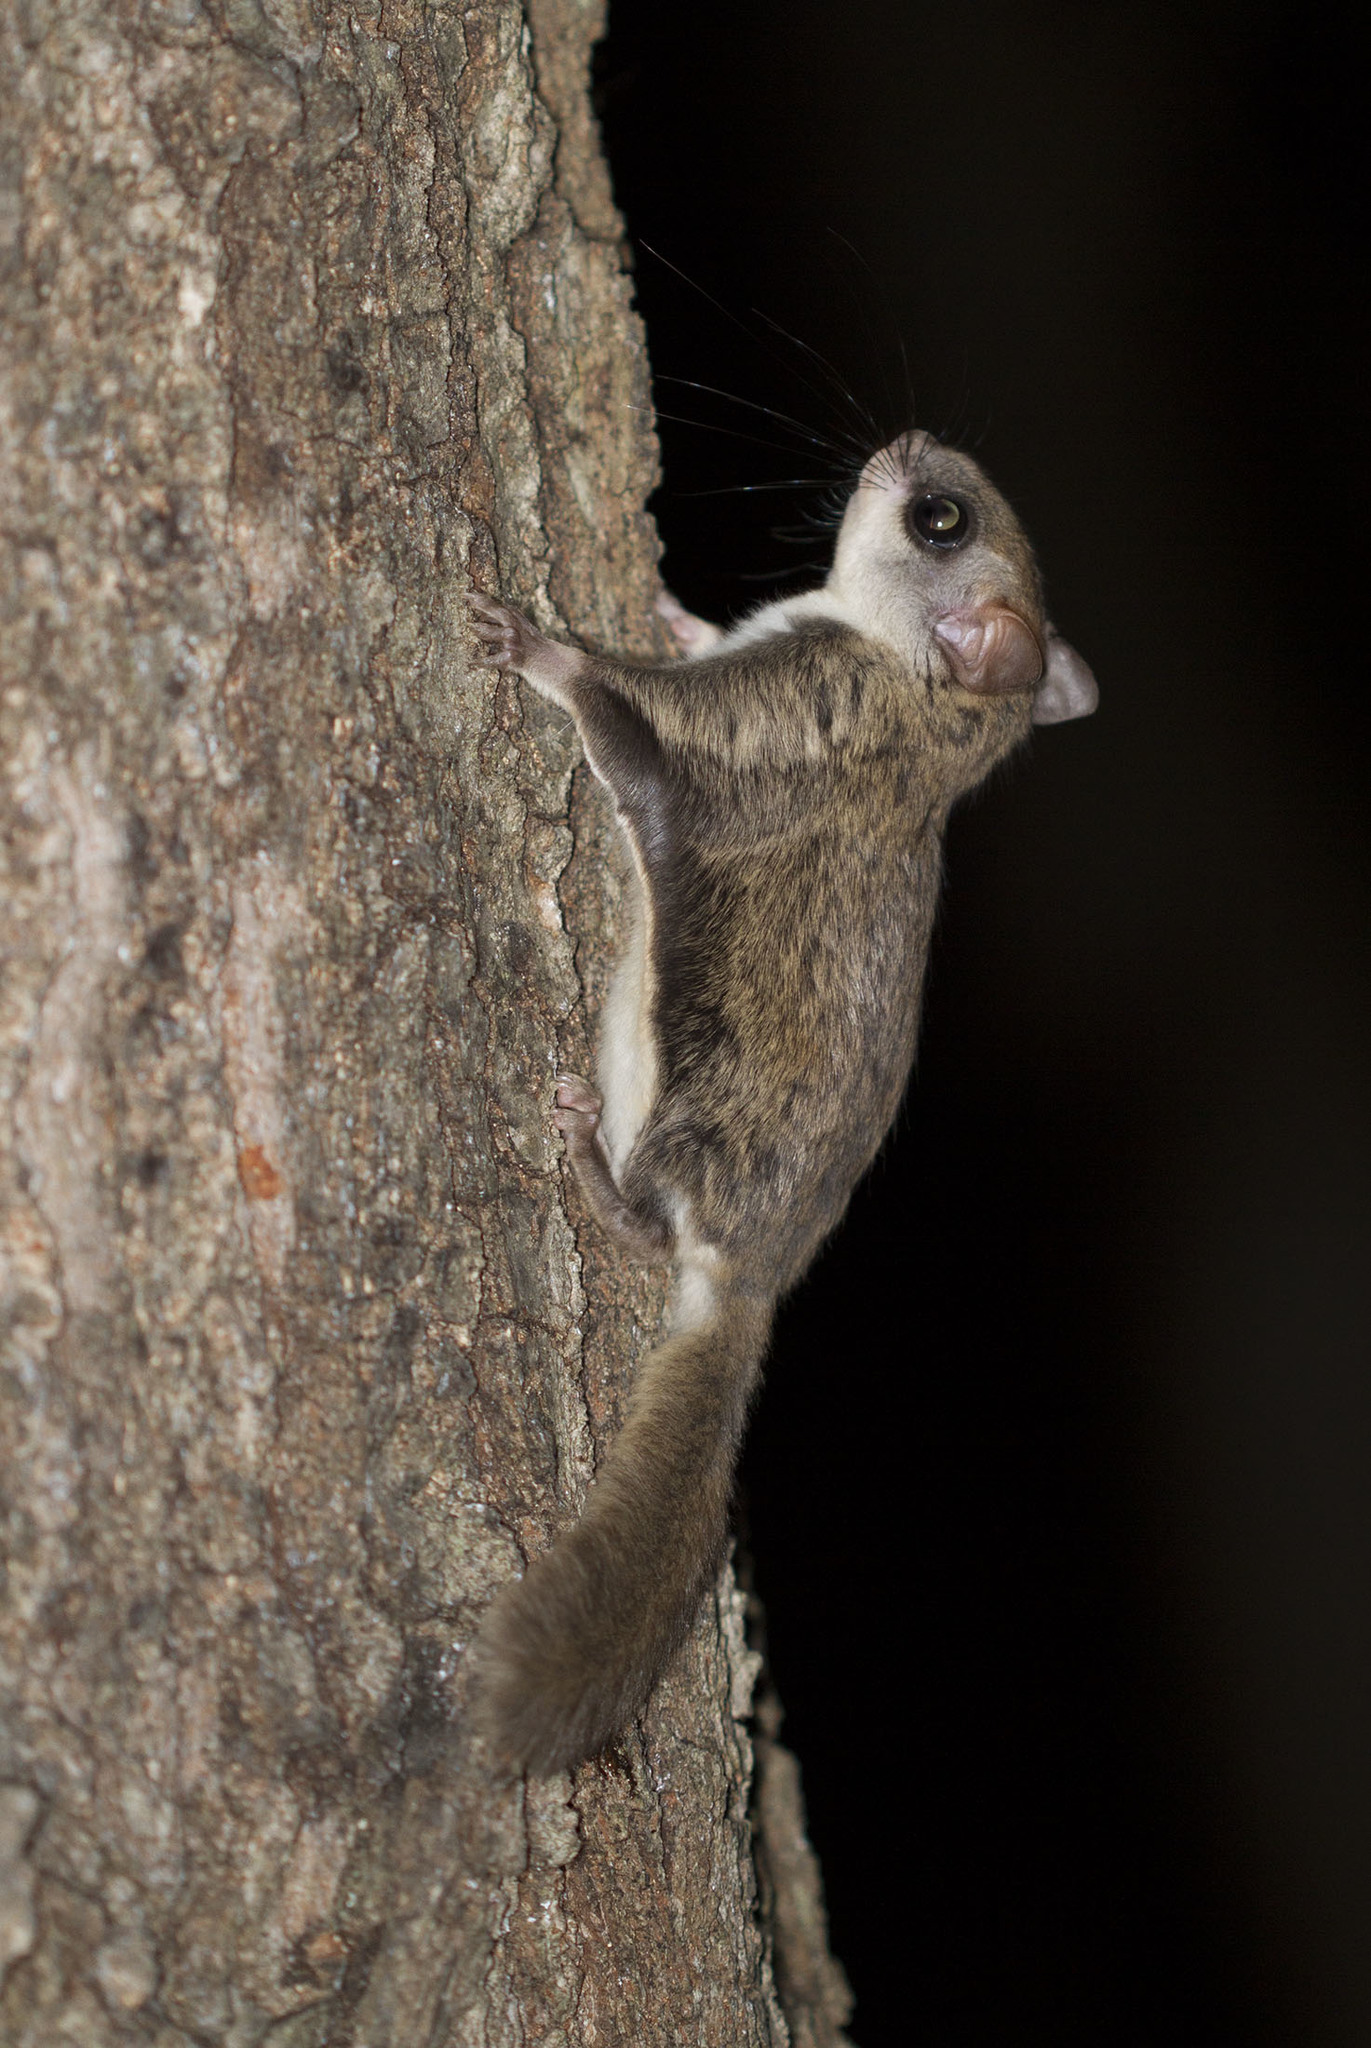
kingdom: Animalia
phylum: Chordata
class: Mammalia
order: Rodentia
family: Sciuridae
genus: Glaucomys
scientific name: Glaucomys volans
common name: Southern flying squirrel
